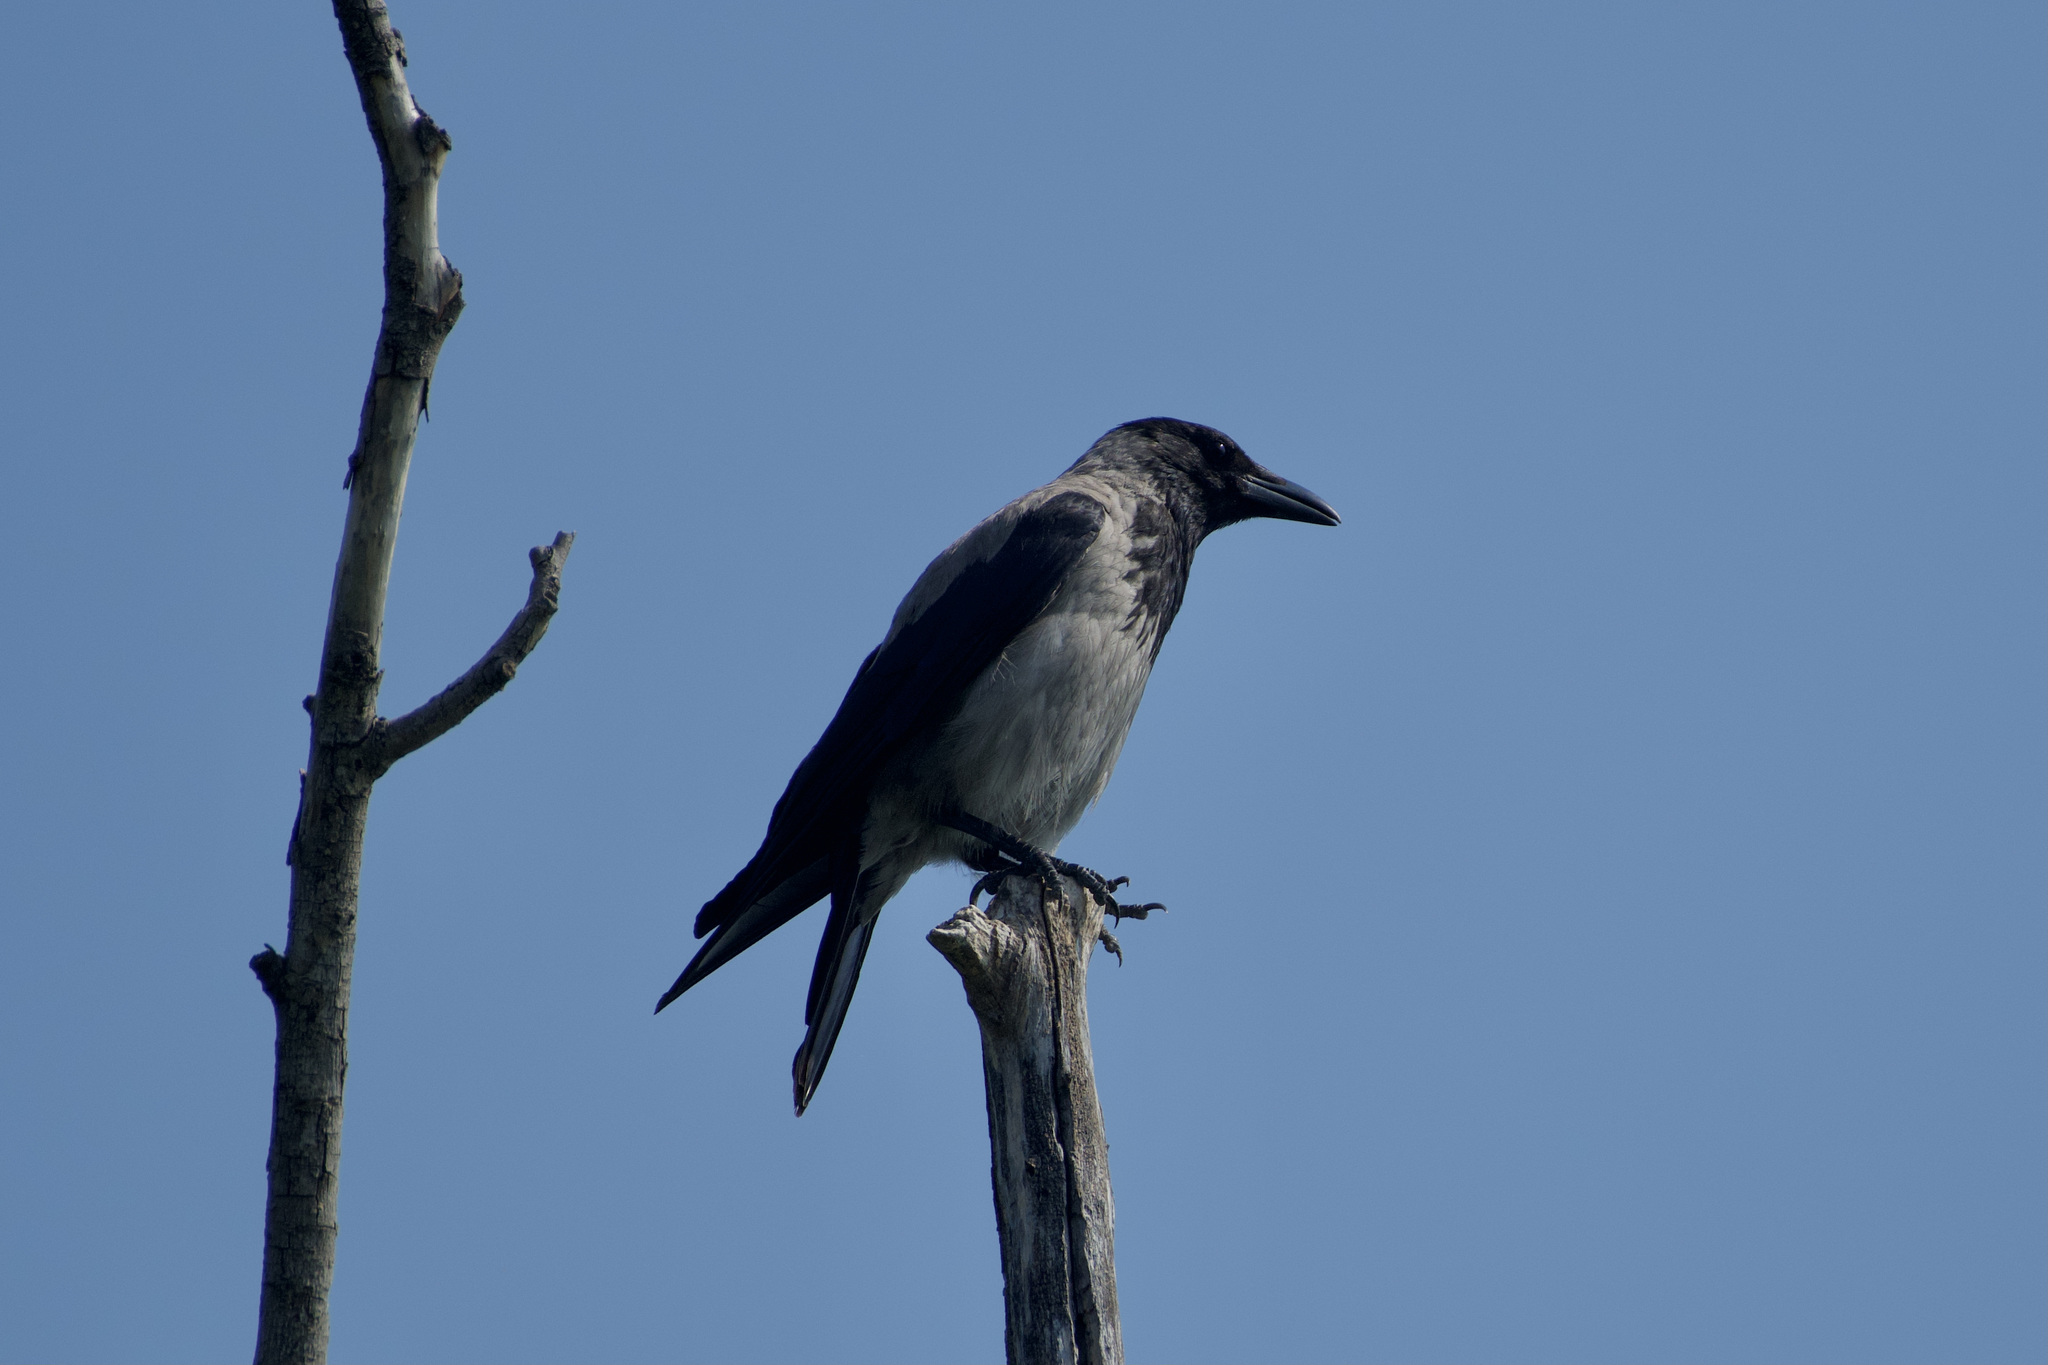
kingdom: Animalia
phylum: Chordata
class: Aves
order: Passeriformes
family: Corvidae
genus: Corvus
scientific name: Corvus cornix
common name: Hooded crow
